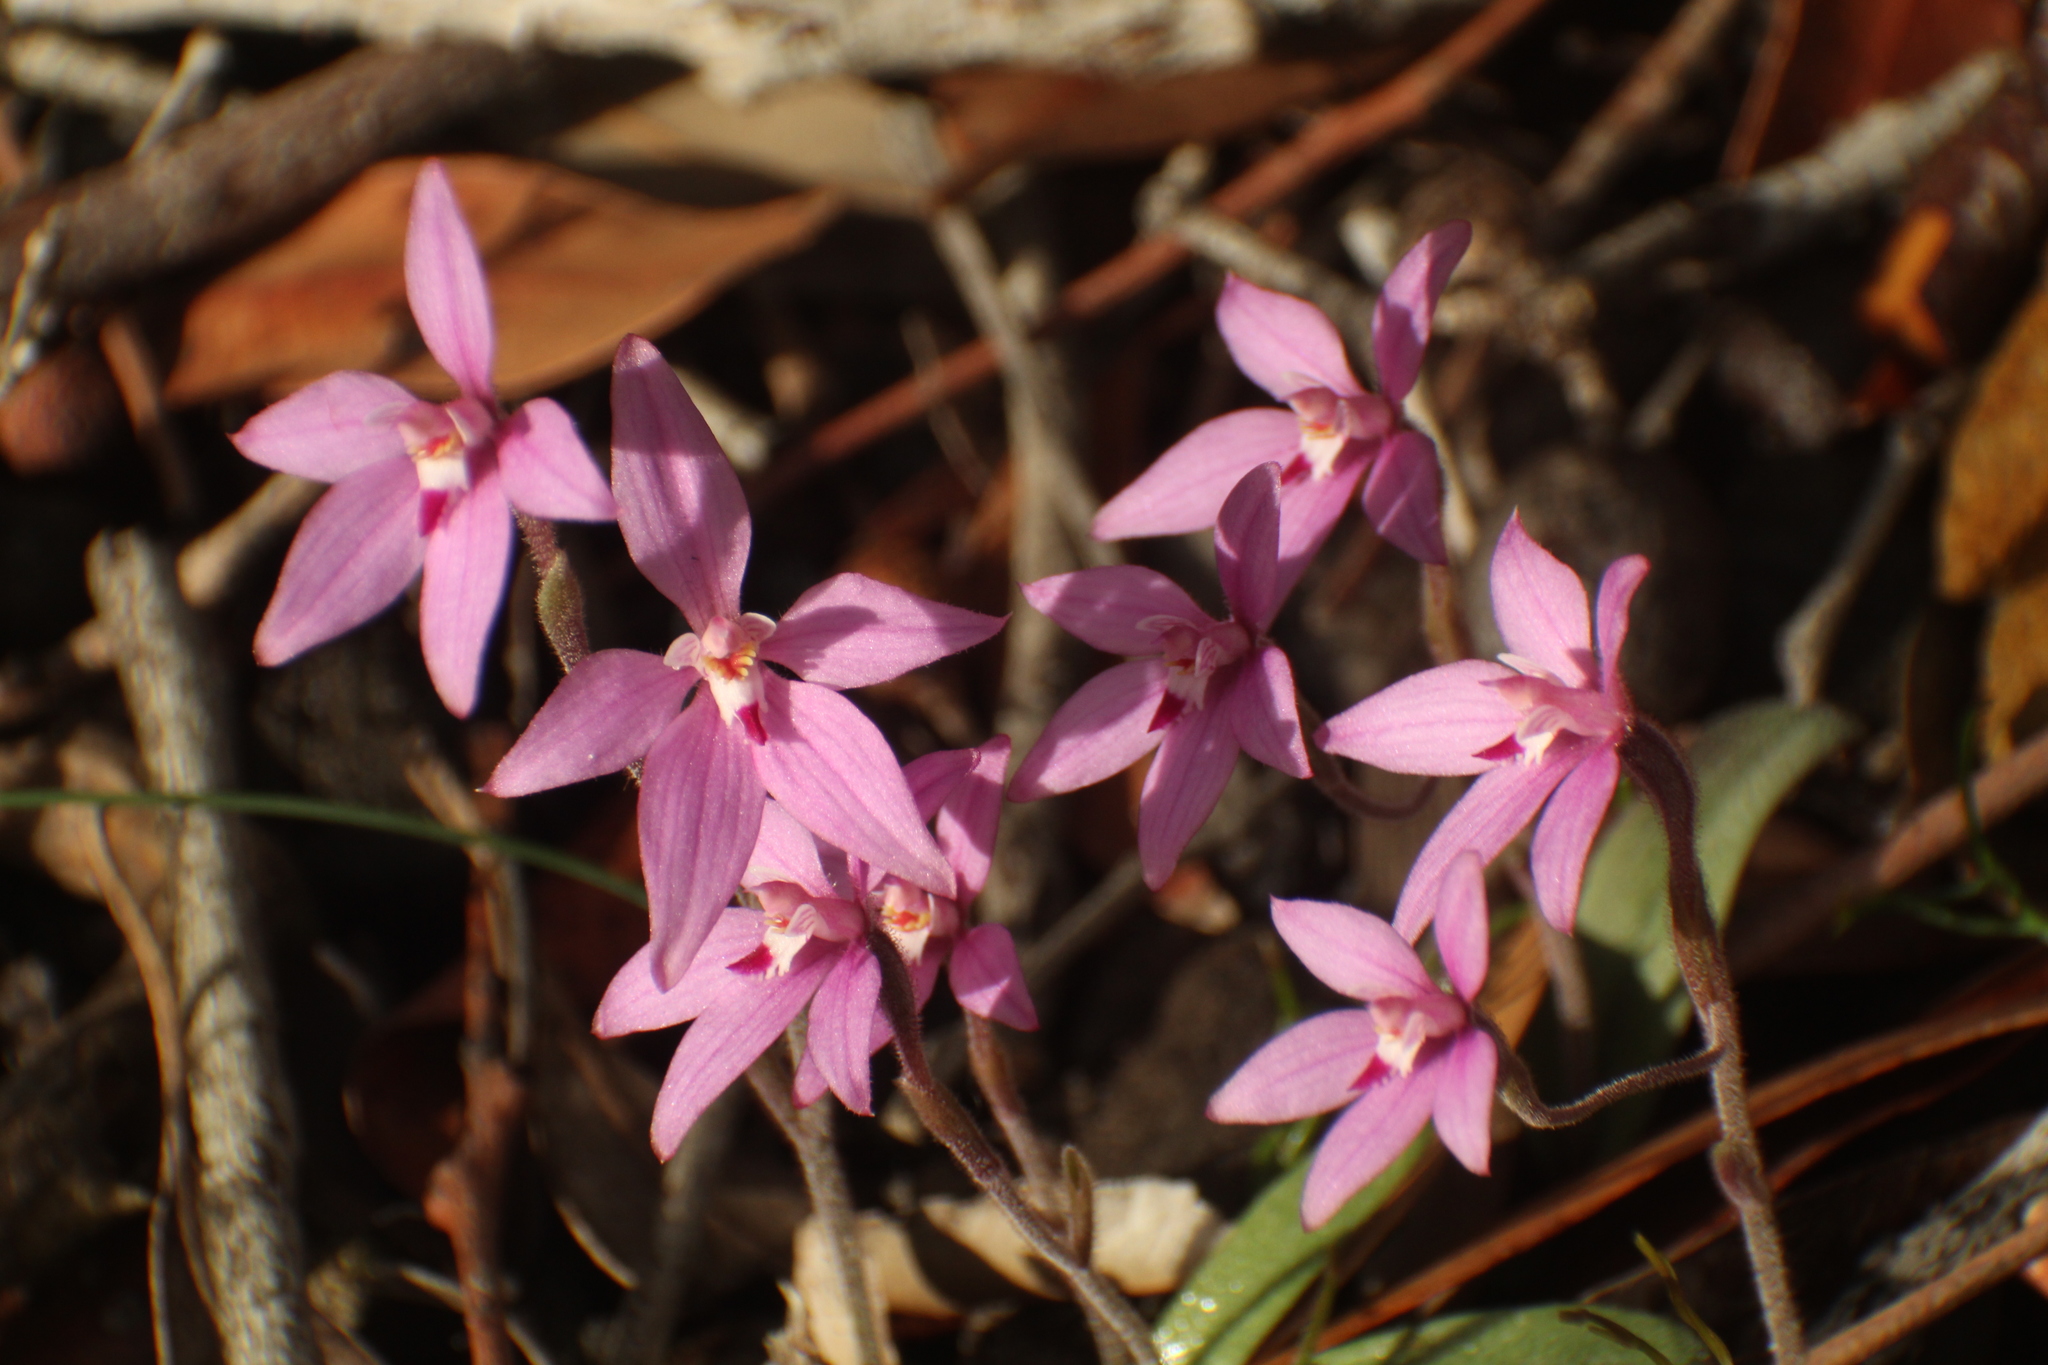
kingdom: Plantae
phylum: Tracheophyta
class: Liliopsida
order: Asparagales
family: Orchidaceae
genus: Caladenia
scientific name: Caladenia reptans
